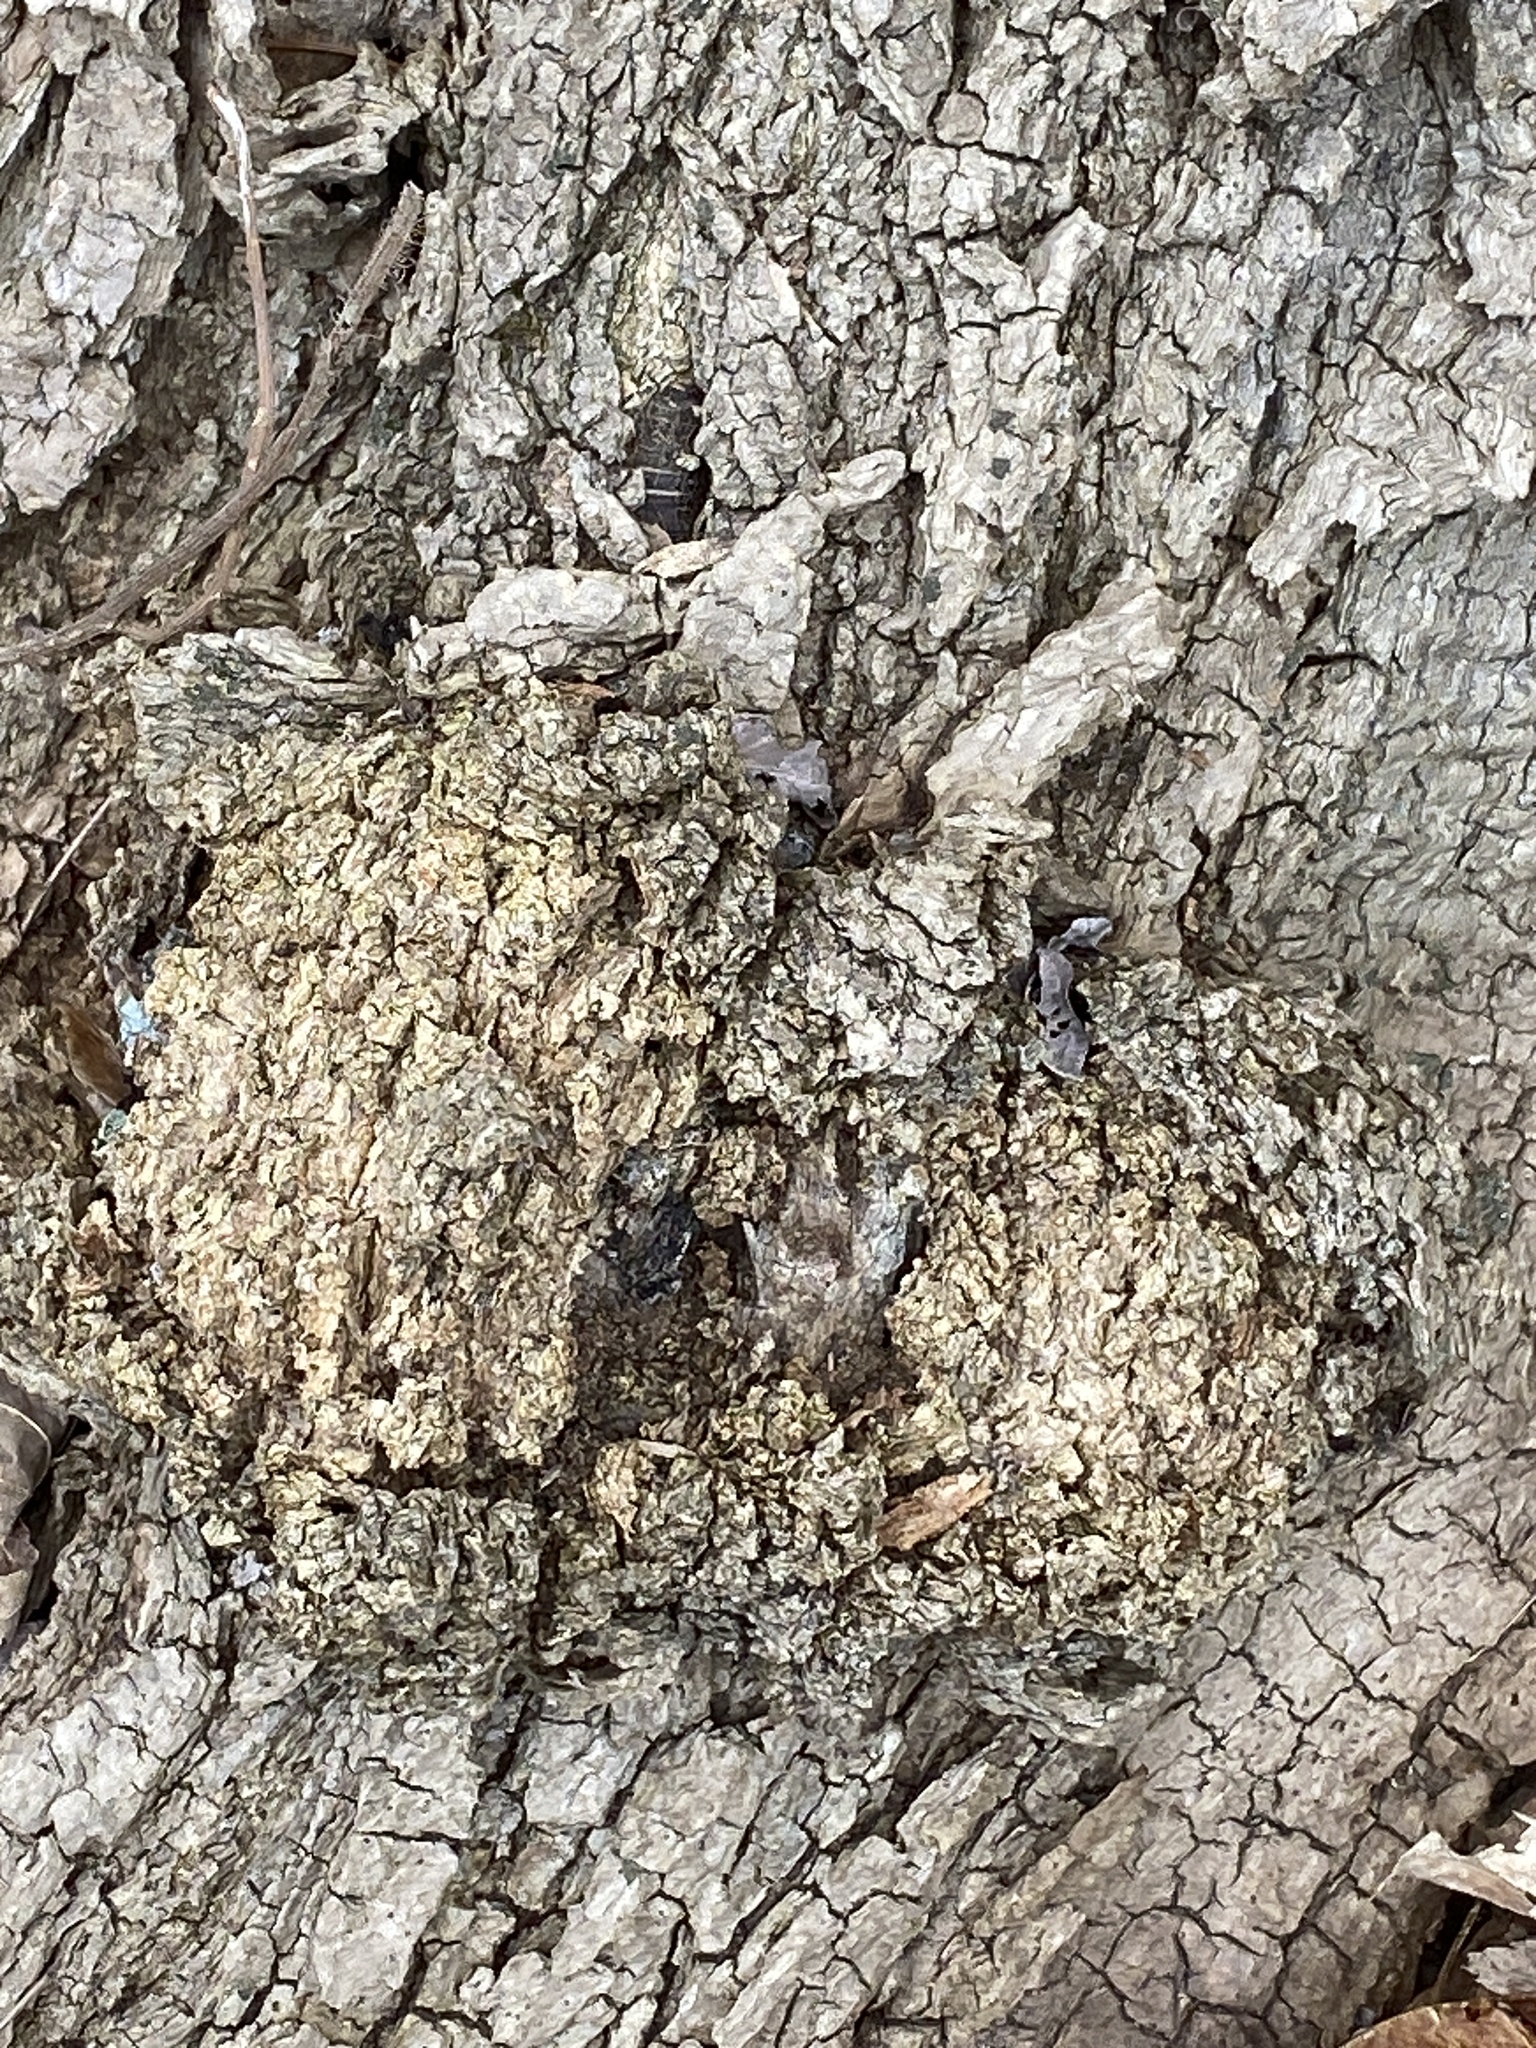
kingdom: Bacteria
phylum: Proteobacteria
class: Alphaproteobacteria
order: Rhizobiales
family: Rhizobiaceae
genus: Rhizobium
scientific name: Rhizobium Agrobacterium radiobacter
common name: Bacterial crown gall
